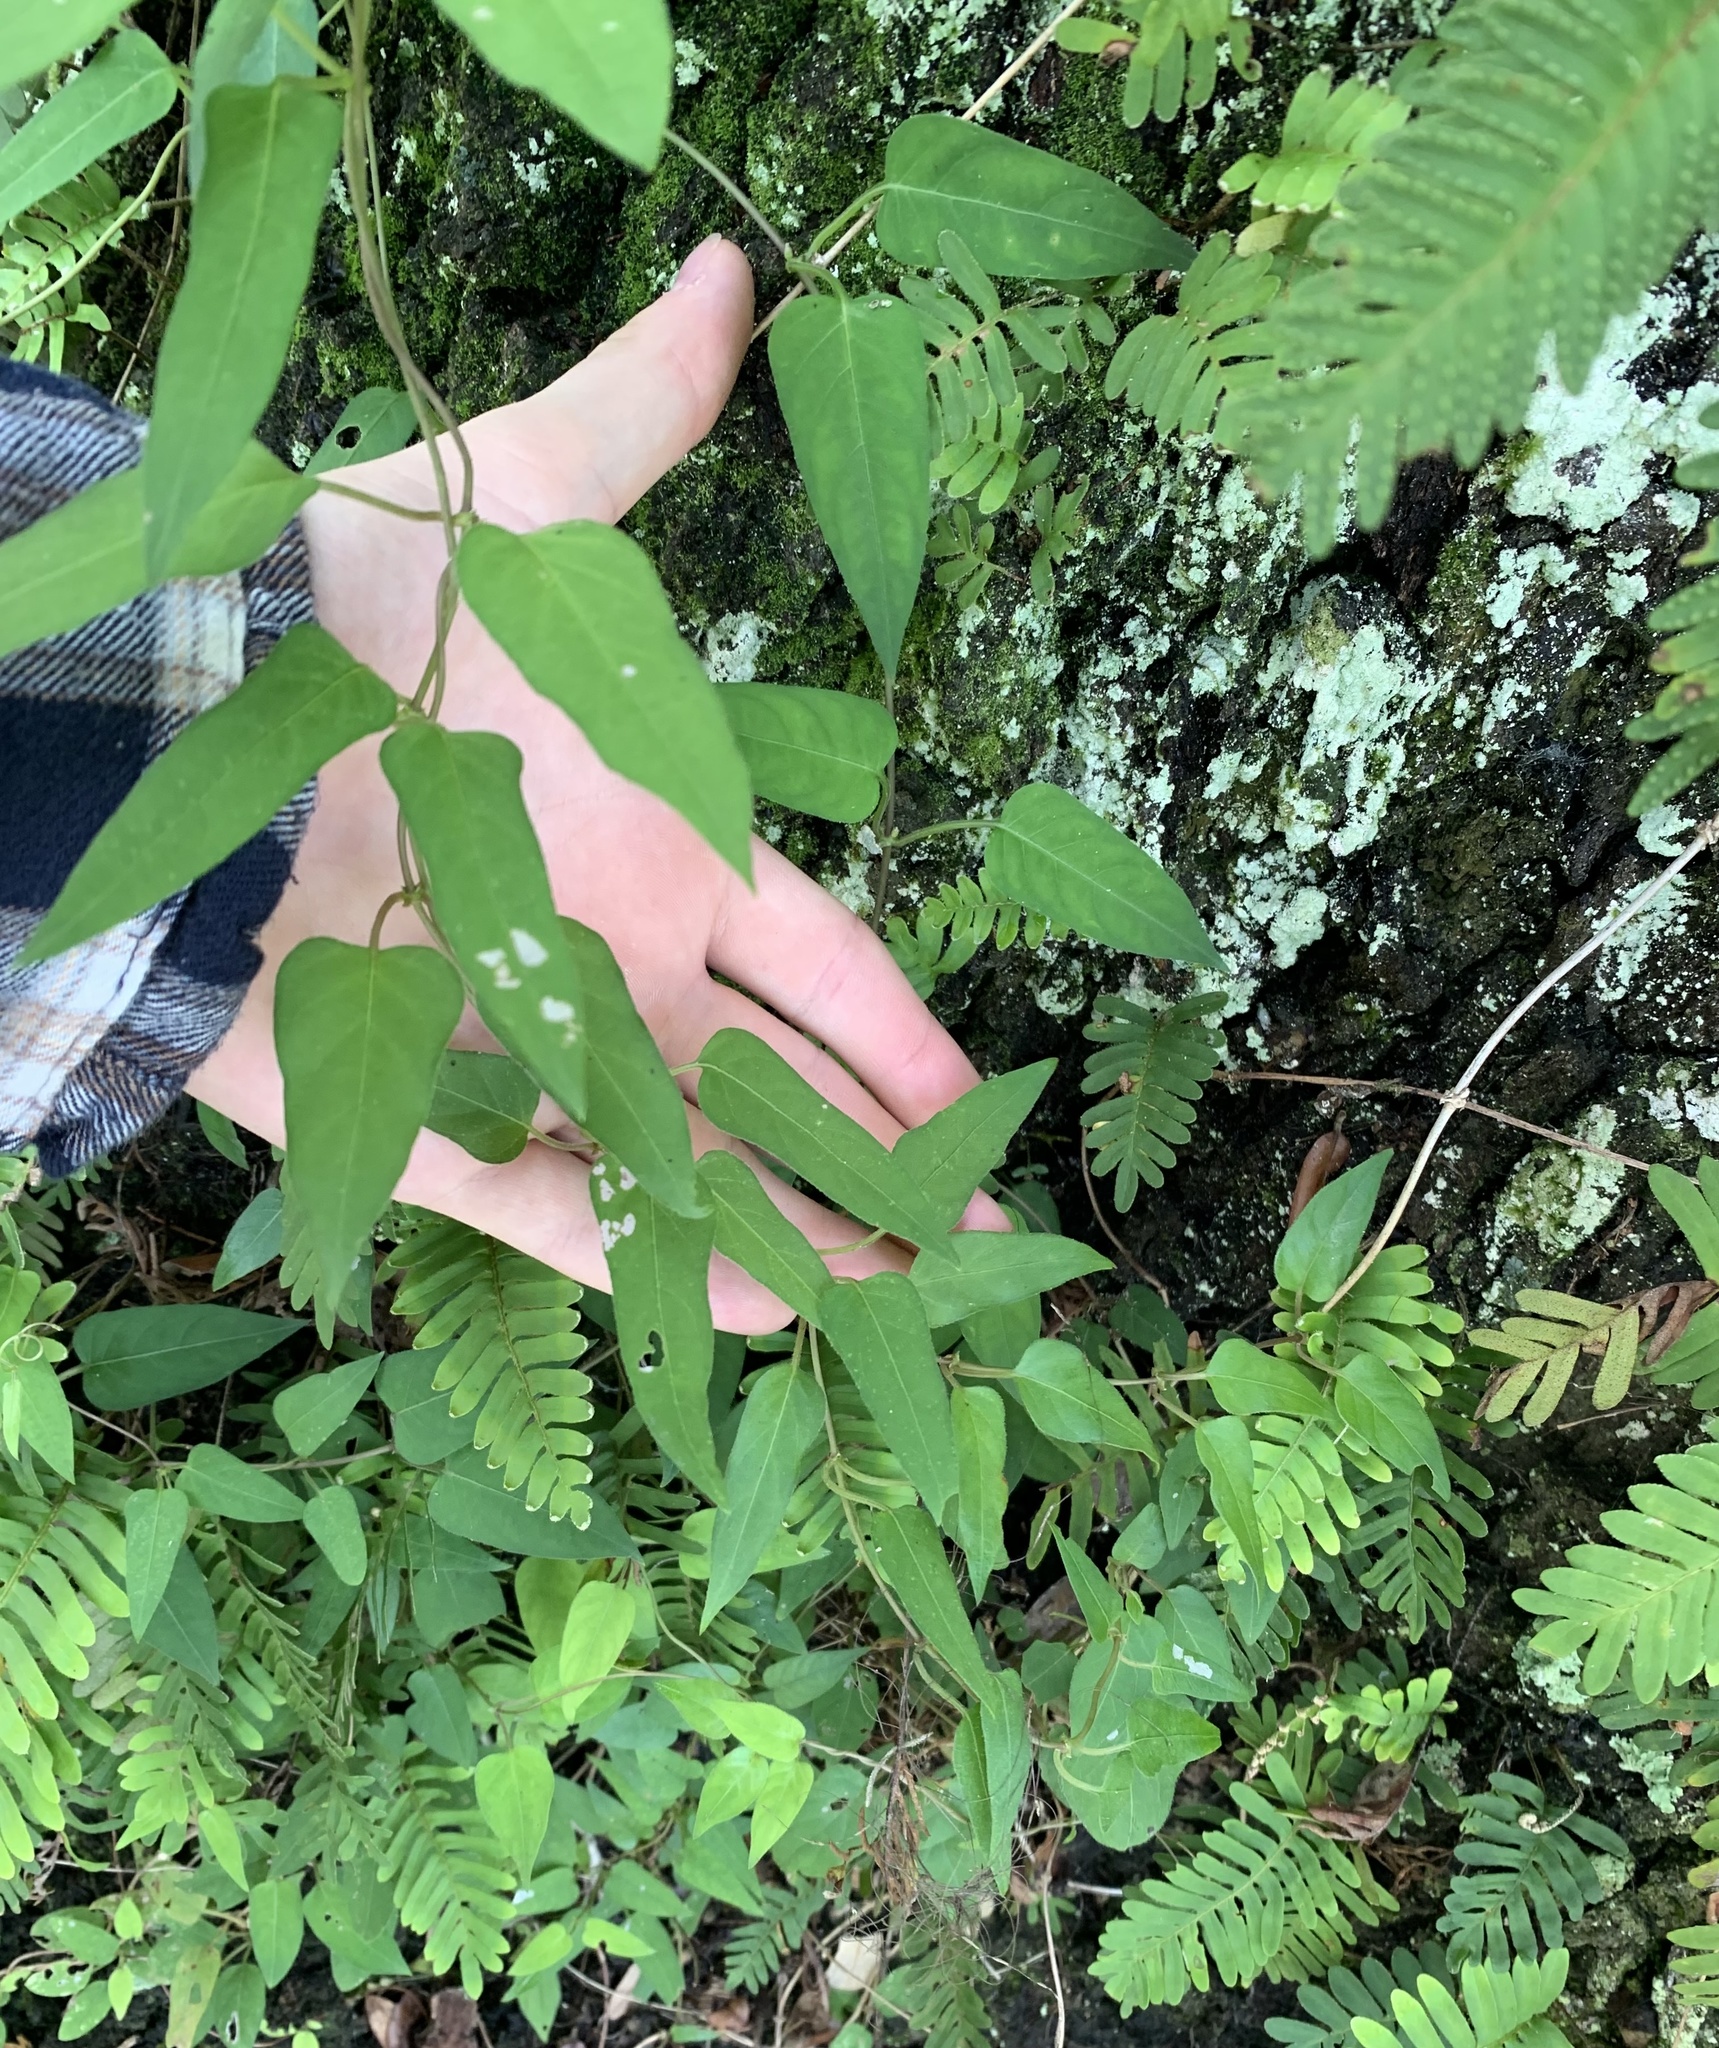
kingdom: Plantae
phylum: Tracheophyta
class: Magnoliopsida
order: Gentianales
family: Rubiaceae
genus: Paederia
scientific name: Paederia foetida
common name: Stinkvine
